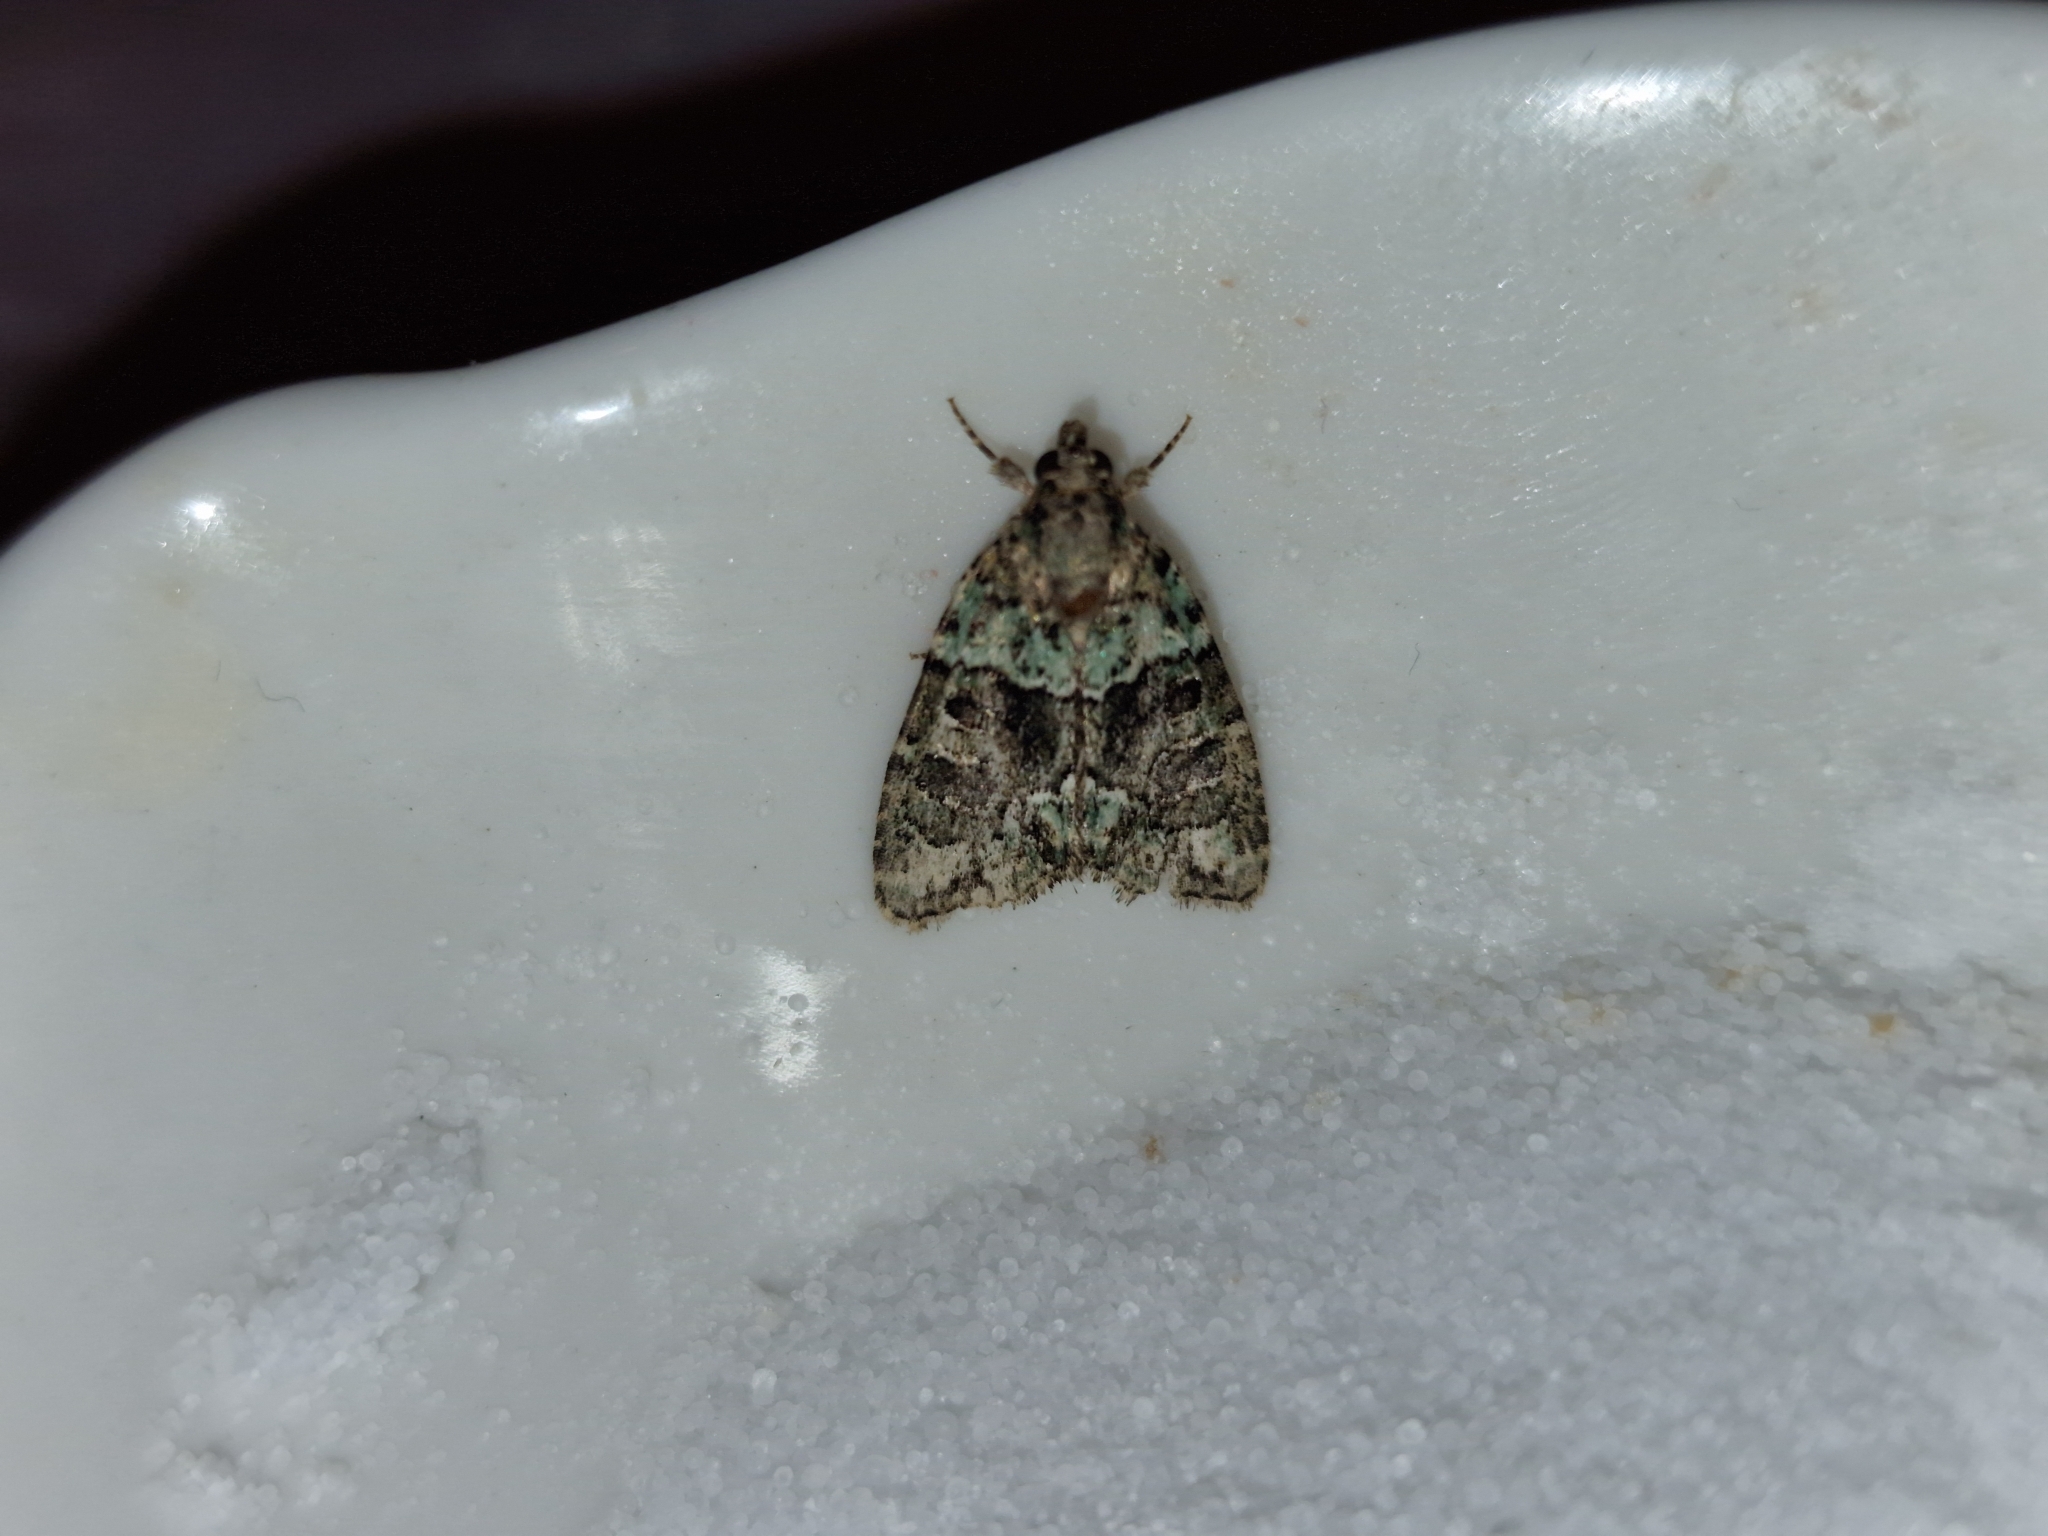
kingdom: Animalia
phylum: Arthropoda
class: Insecta
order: Lepidoptera
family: Noctuidae
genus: Cryphia
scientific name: Cryphia algae
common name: Tree-lichen beauty
